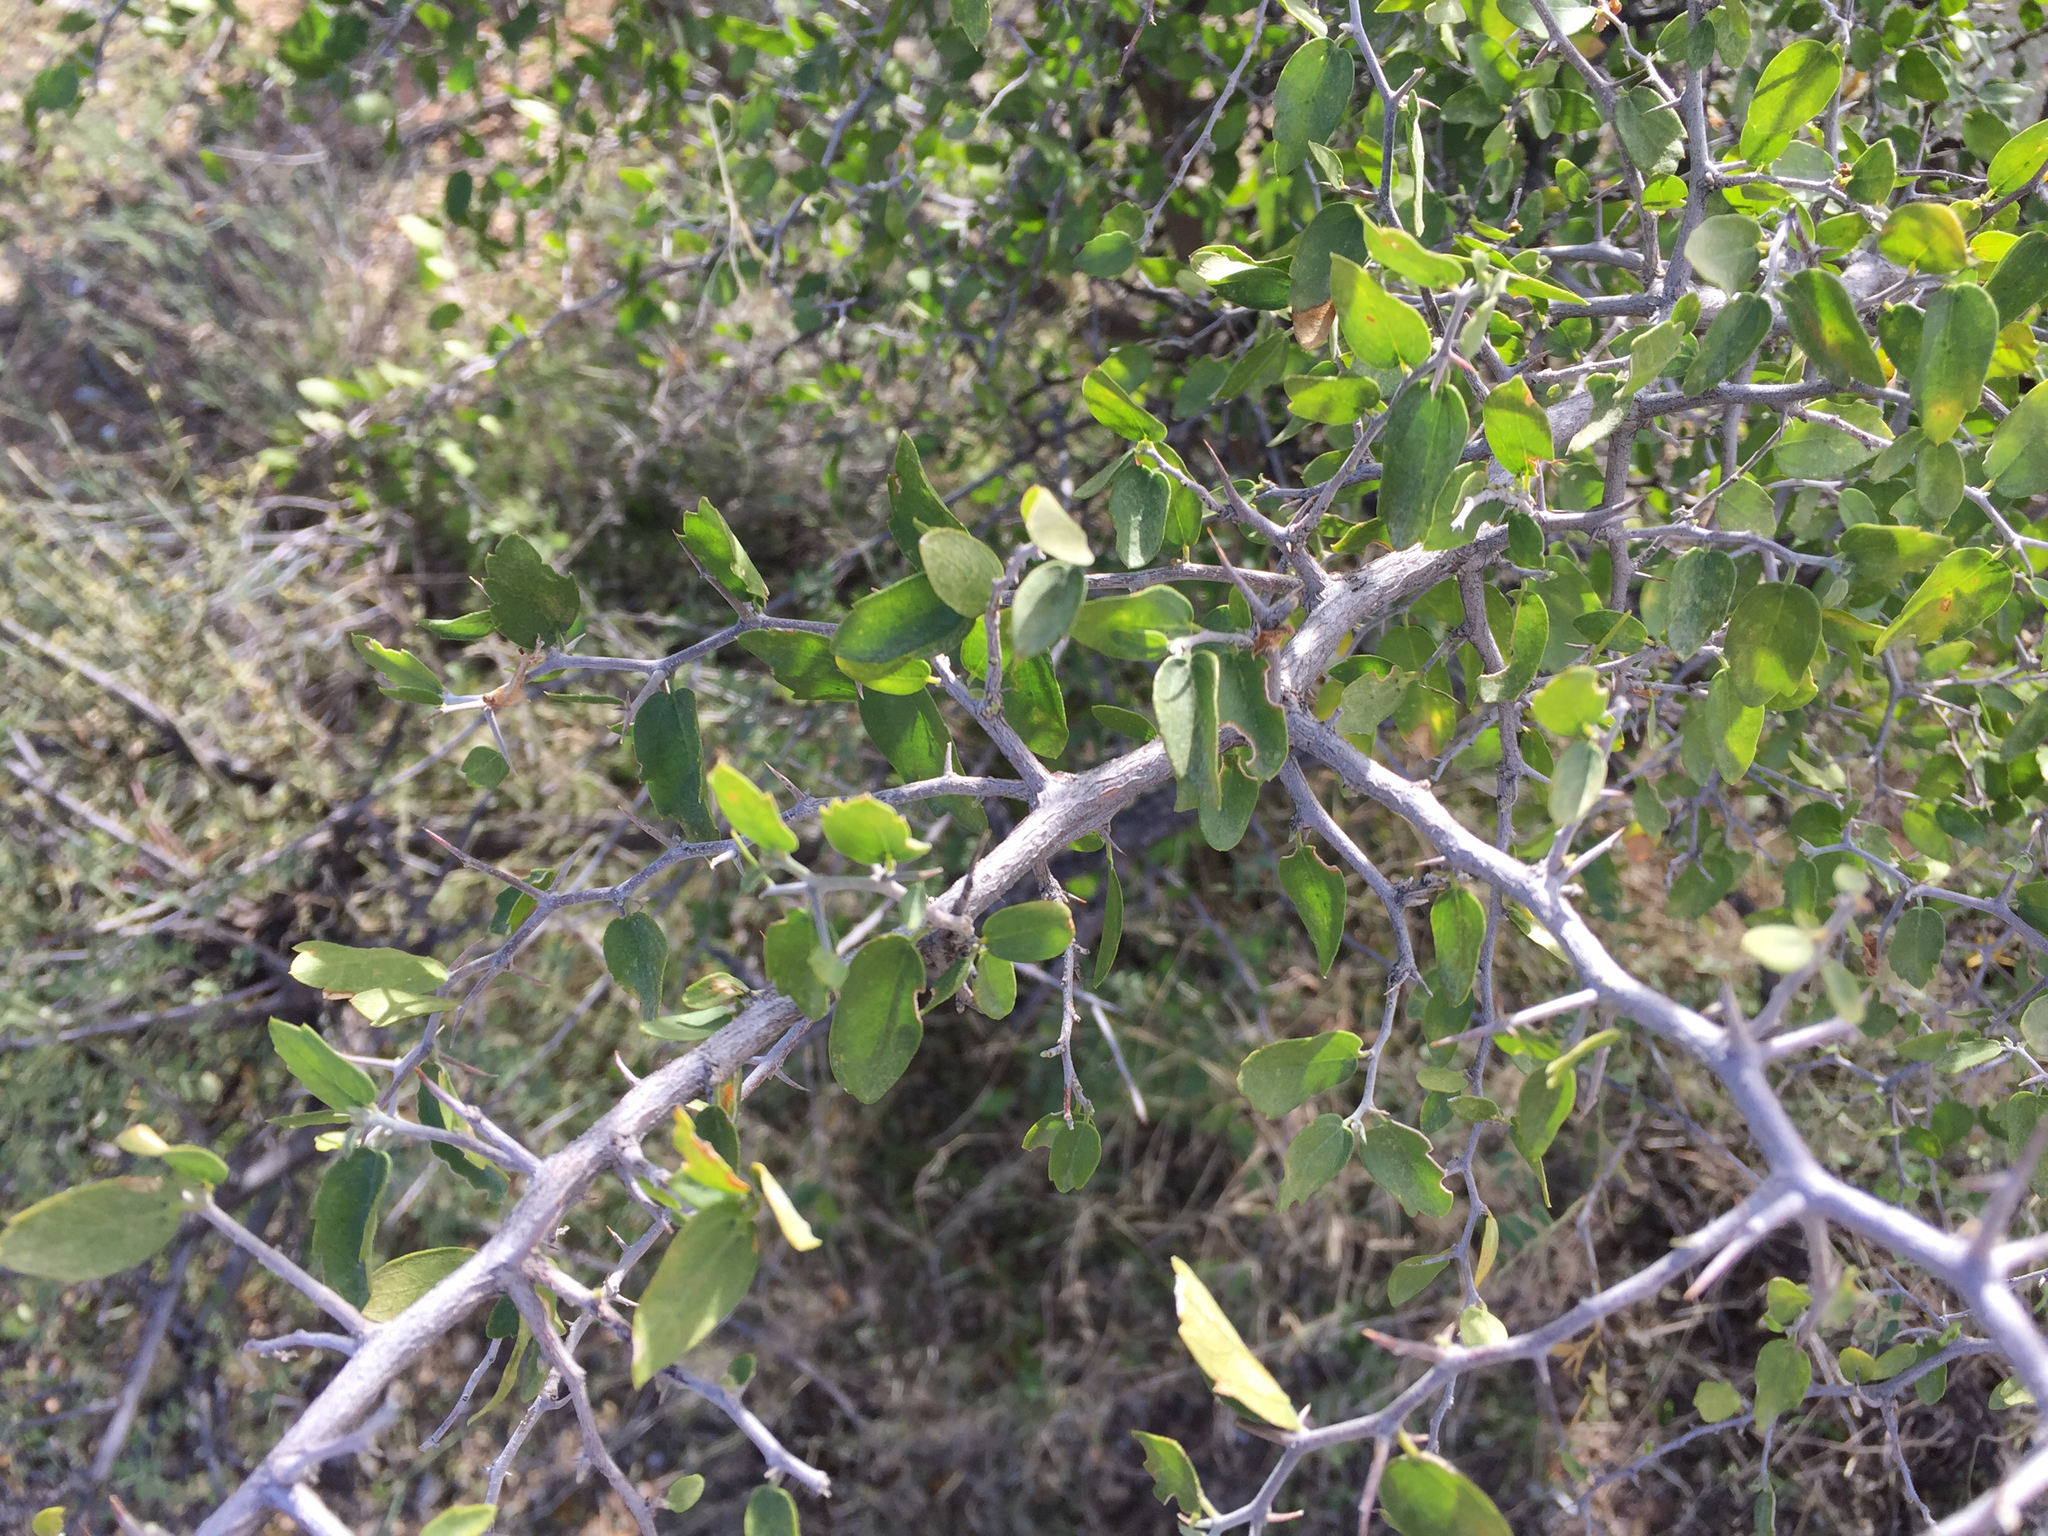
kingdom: Plantae
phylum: Tracheophyta
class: Magnoliopsida
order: Rosales
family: Cannabaceae
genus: Celtis
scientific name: Celtis pallida
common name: Desert hackberry
